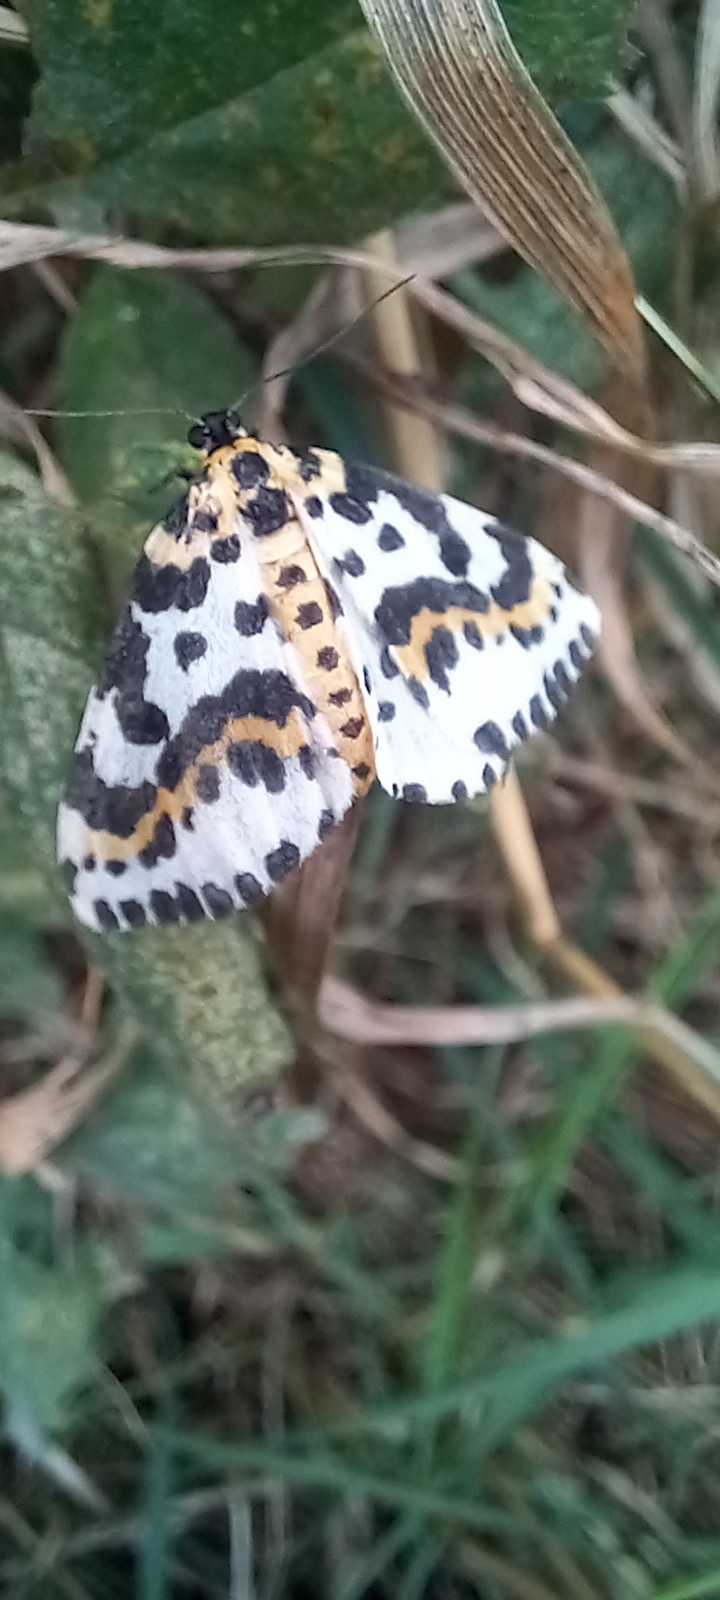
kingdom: Animalia
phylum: Arthropoda
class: Insecta
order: Lepidoptera
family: Geometridae
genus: Abraxas
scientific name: Abraxas grossulariata
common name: Magpie
